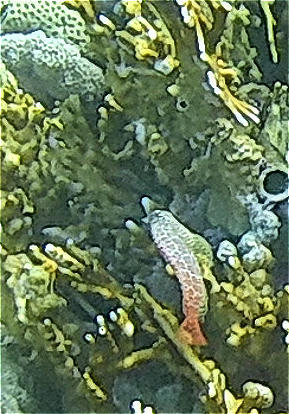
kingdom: Animalia
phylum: Chordata
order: Perciformes
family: Blenniidae
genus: Exallias
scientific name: Exallias brevis
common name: Leopard blenny
